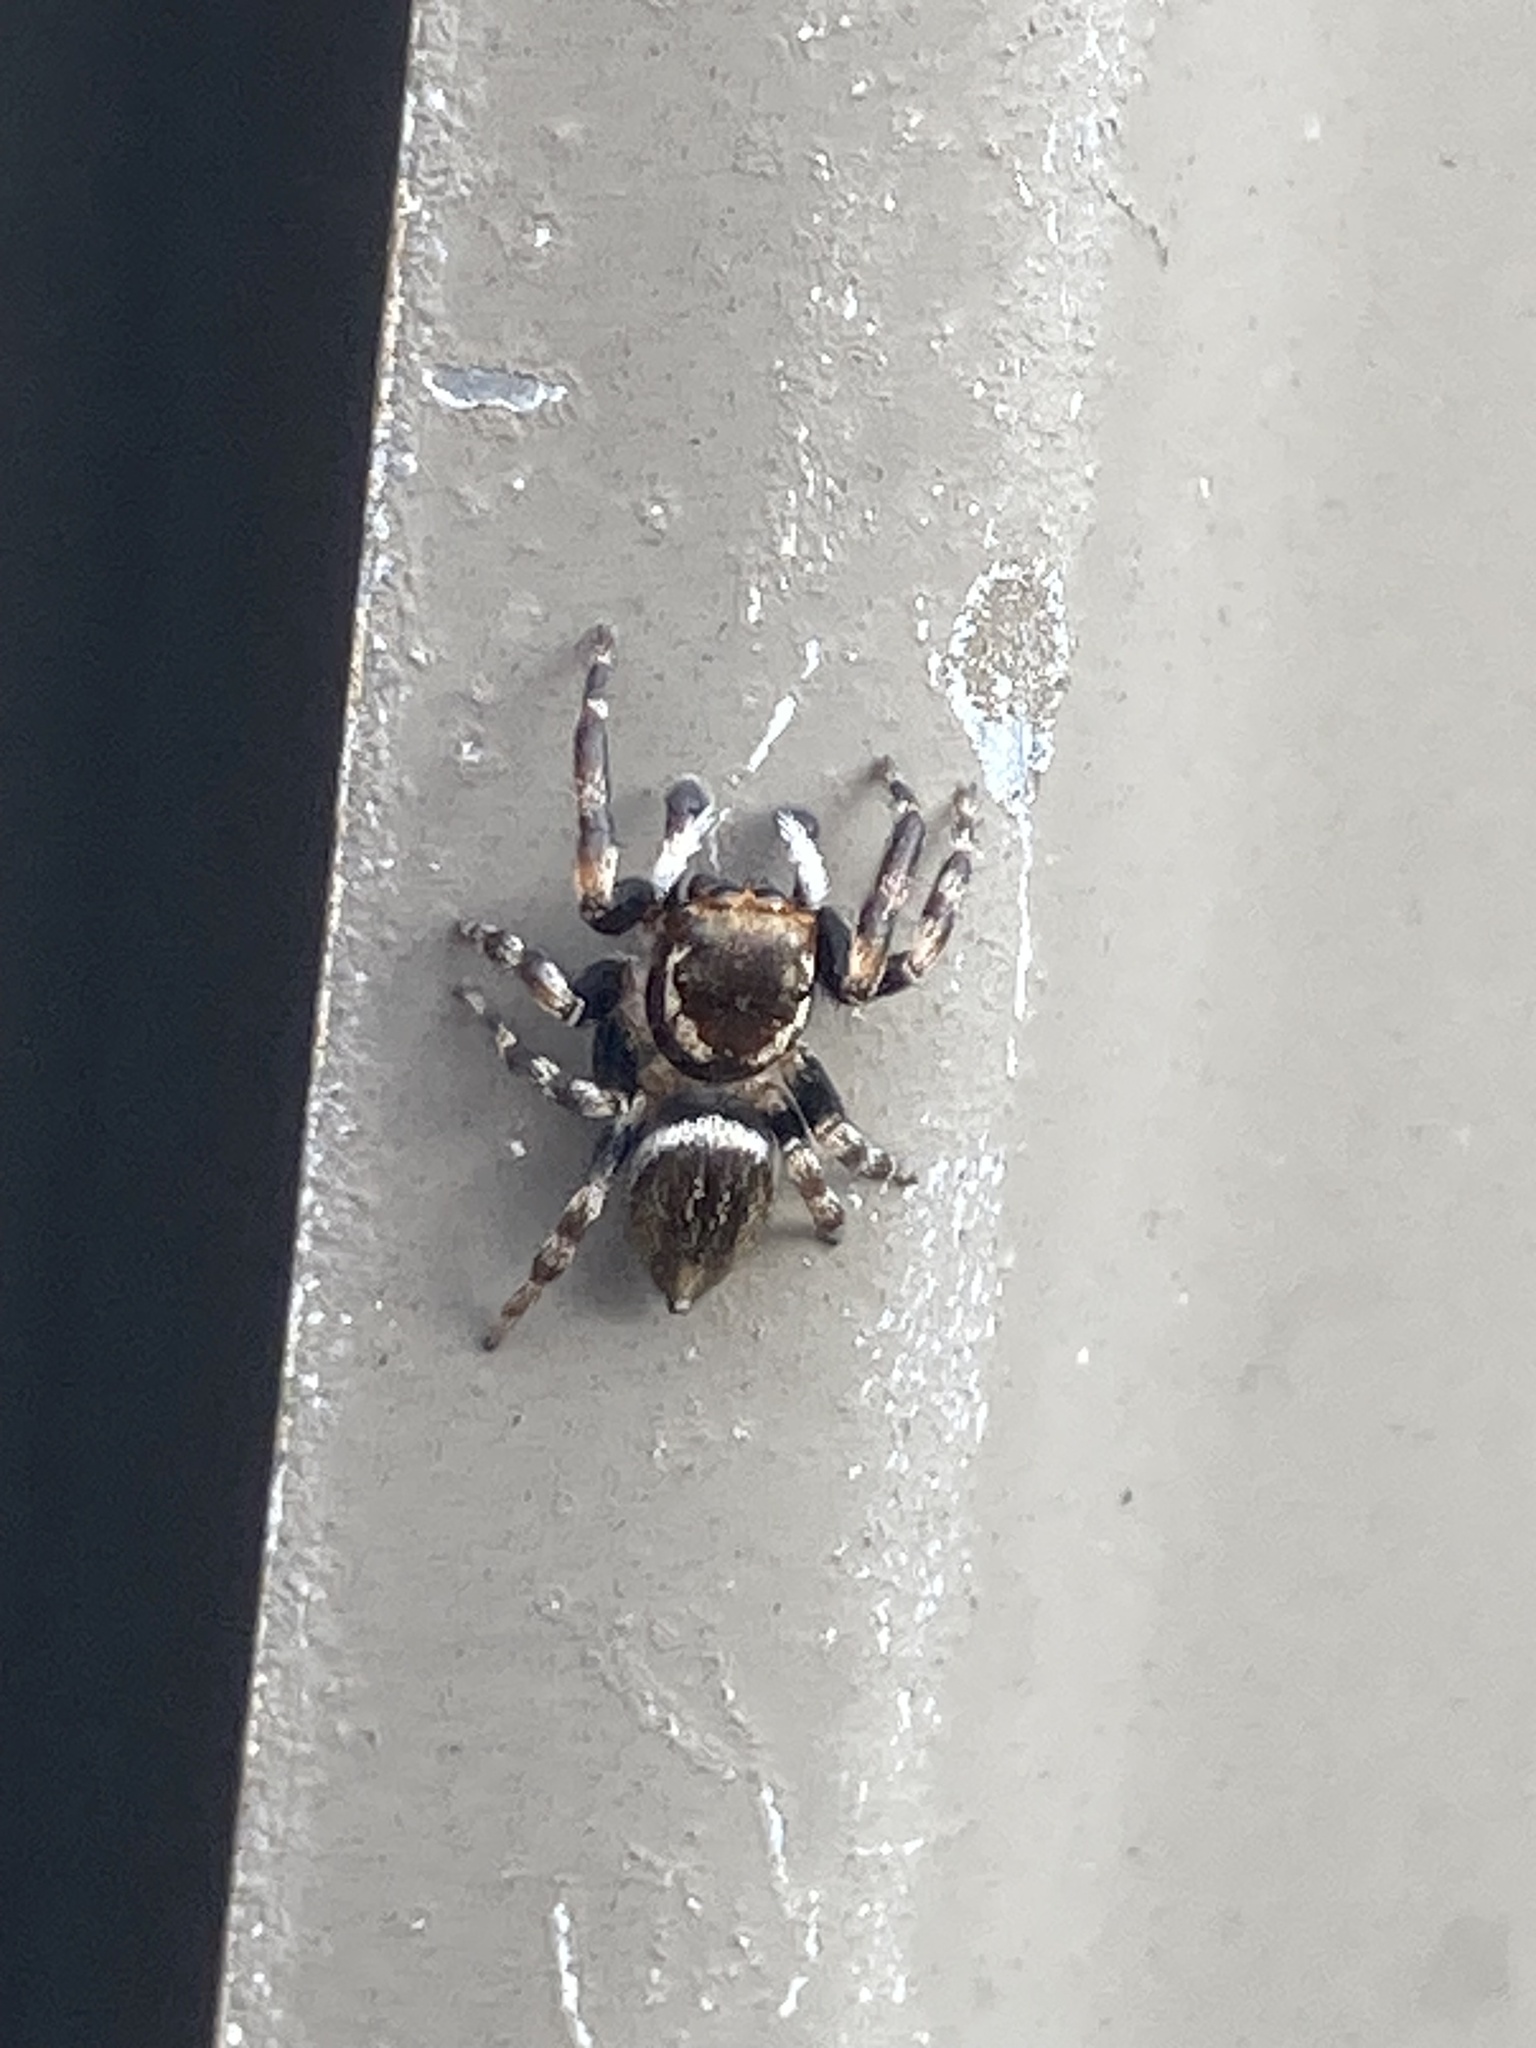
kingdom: Animalia
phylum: Arthropoda
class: Arachnida
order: Araneae
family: Salticidae
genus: Maratus
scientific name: Maratus scutulatus
